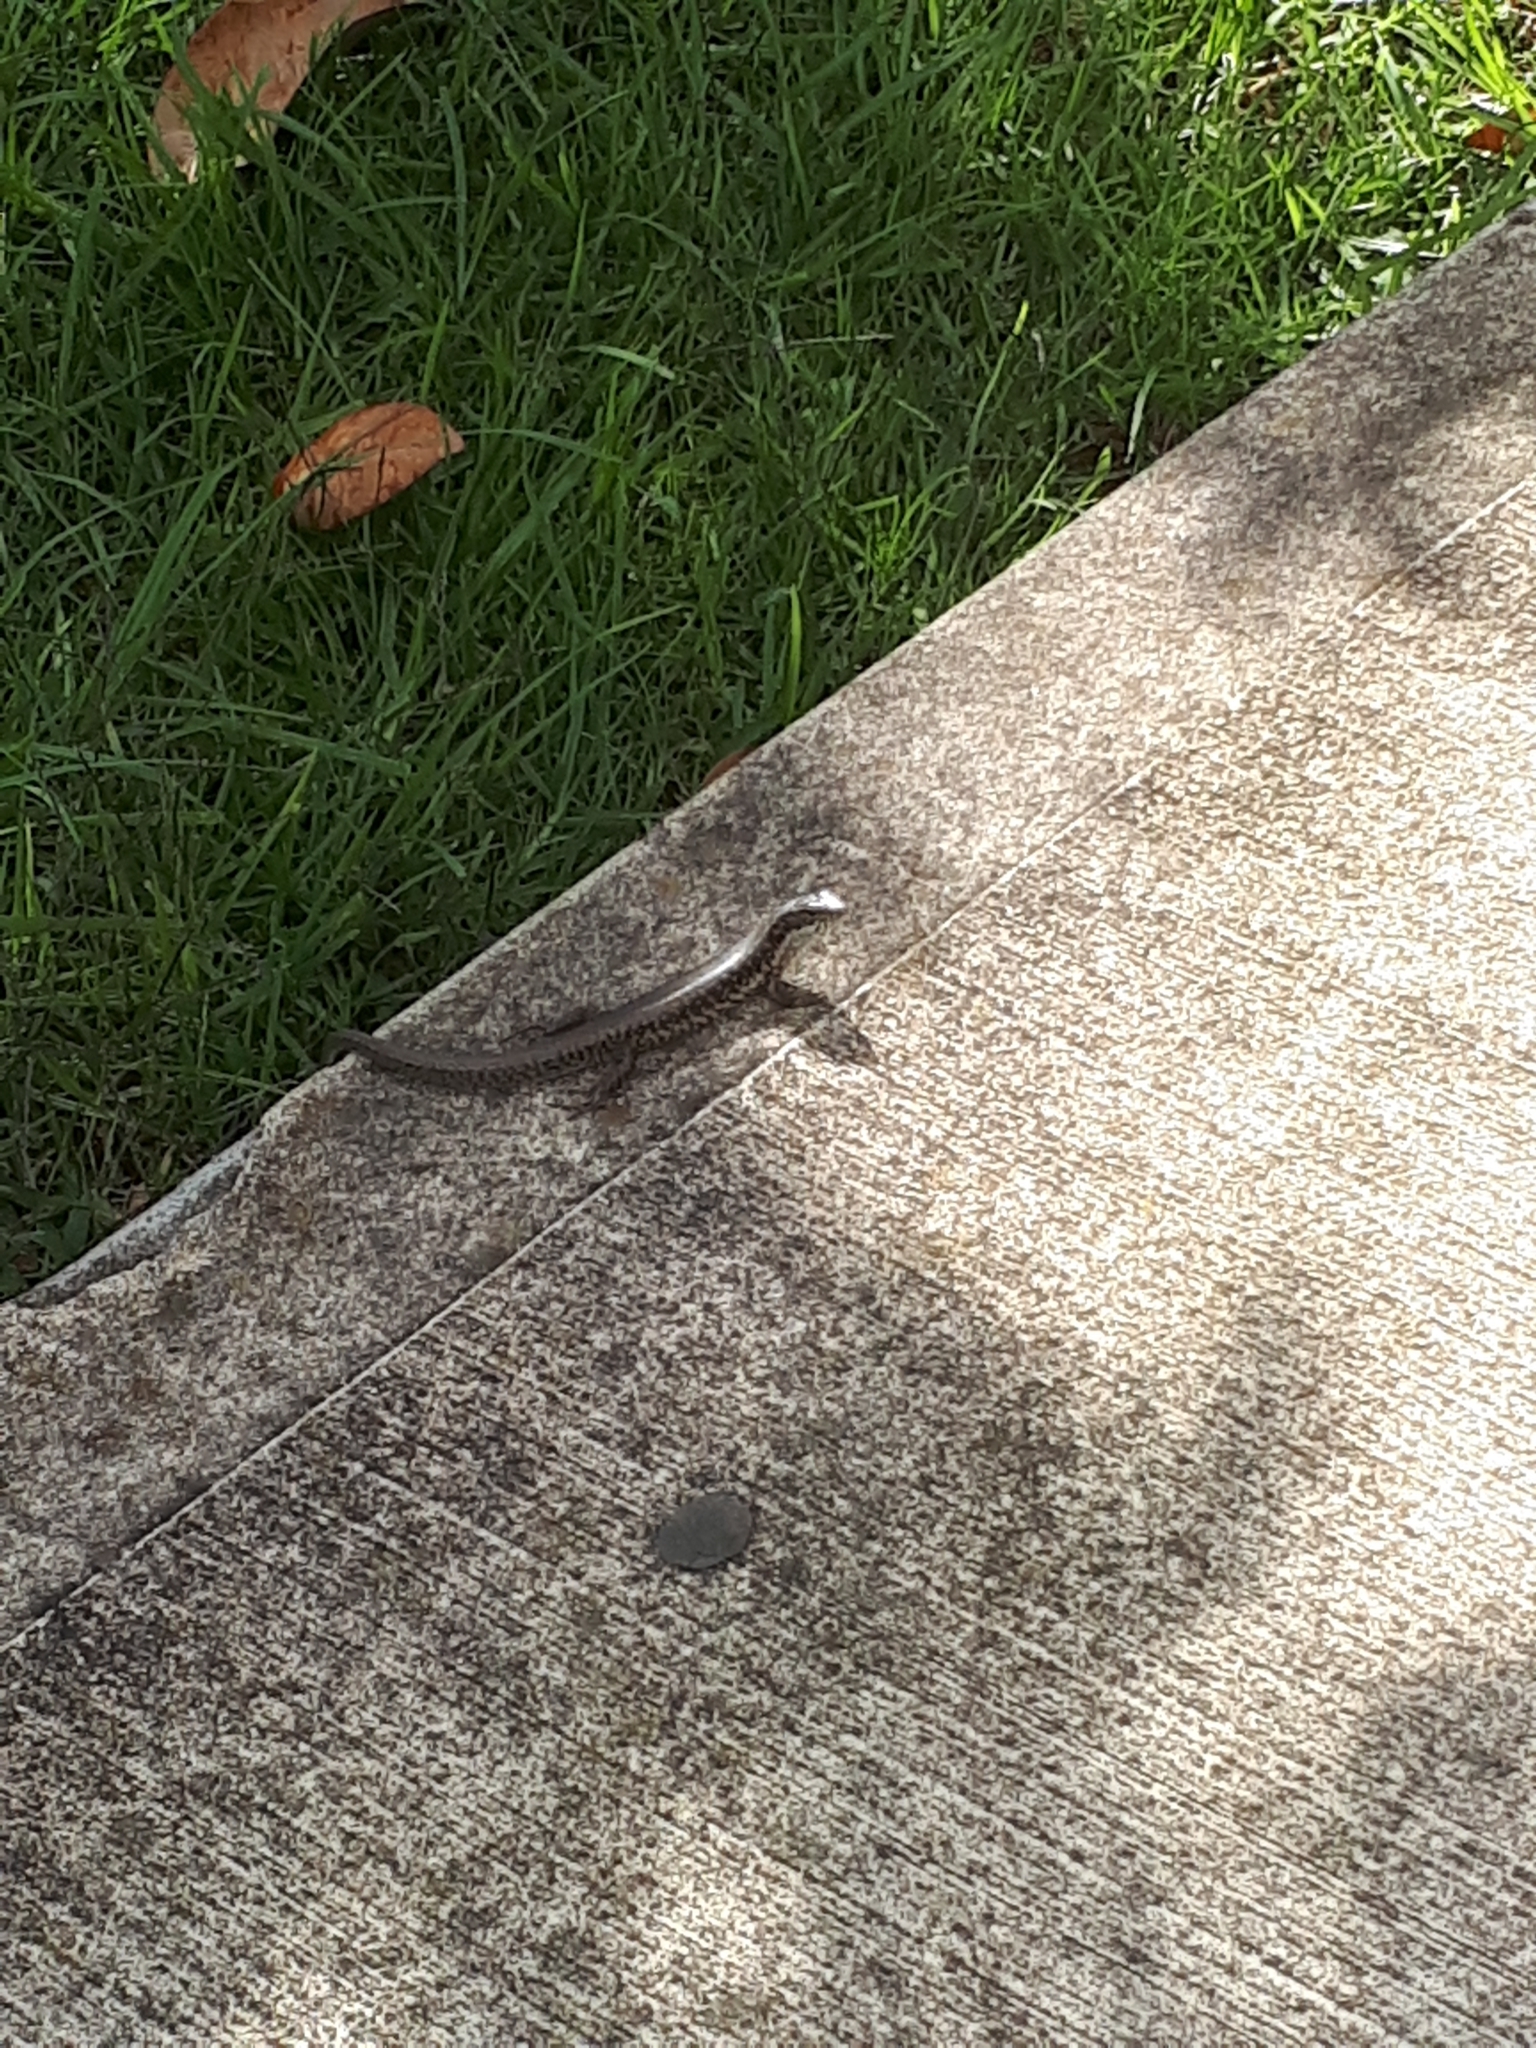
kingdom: Animalia
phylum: Chordata
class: Squamata
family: Scincidae
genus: Eulamprus
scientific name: Eulamprus quoyii
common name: Eastern water skink
